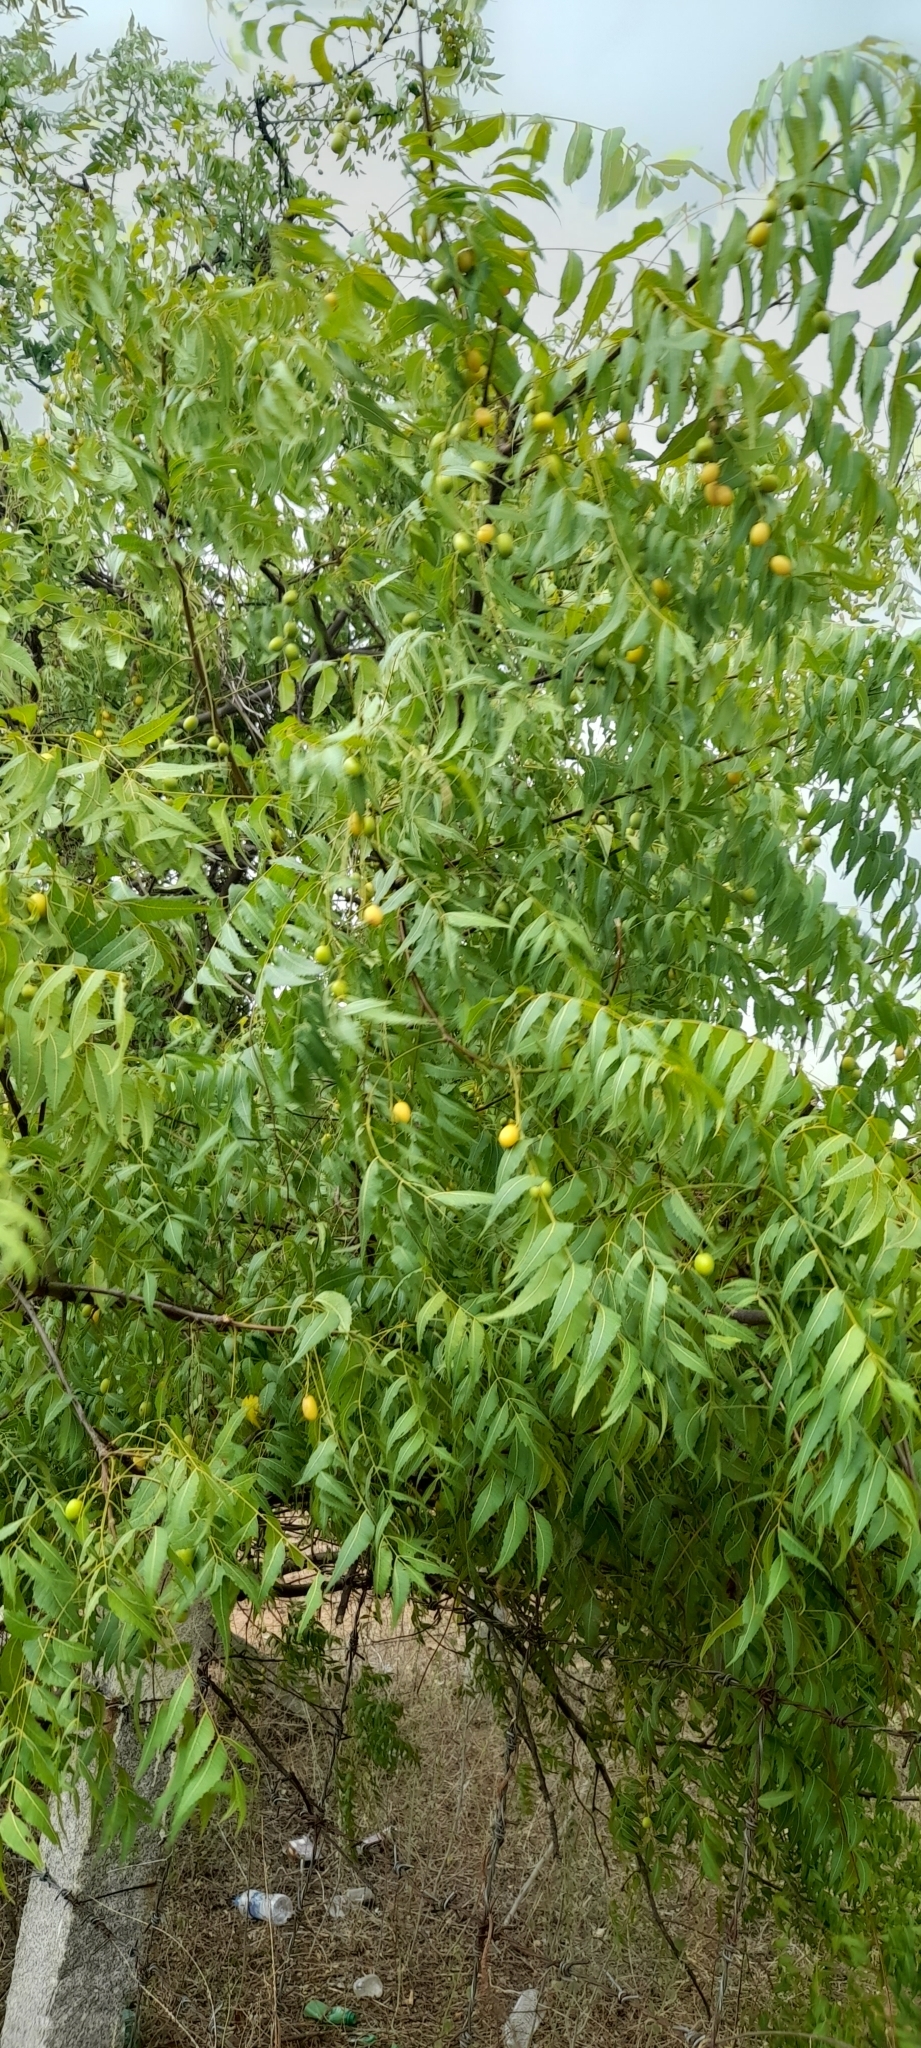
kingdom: Plantae
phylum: Tracheophyta
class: Magnoliopsida
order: Sapindales
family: Meliaceae
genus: Azadirachta
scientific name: Azadirachta indica
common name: Neem
